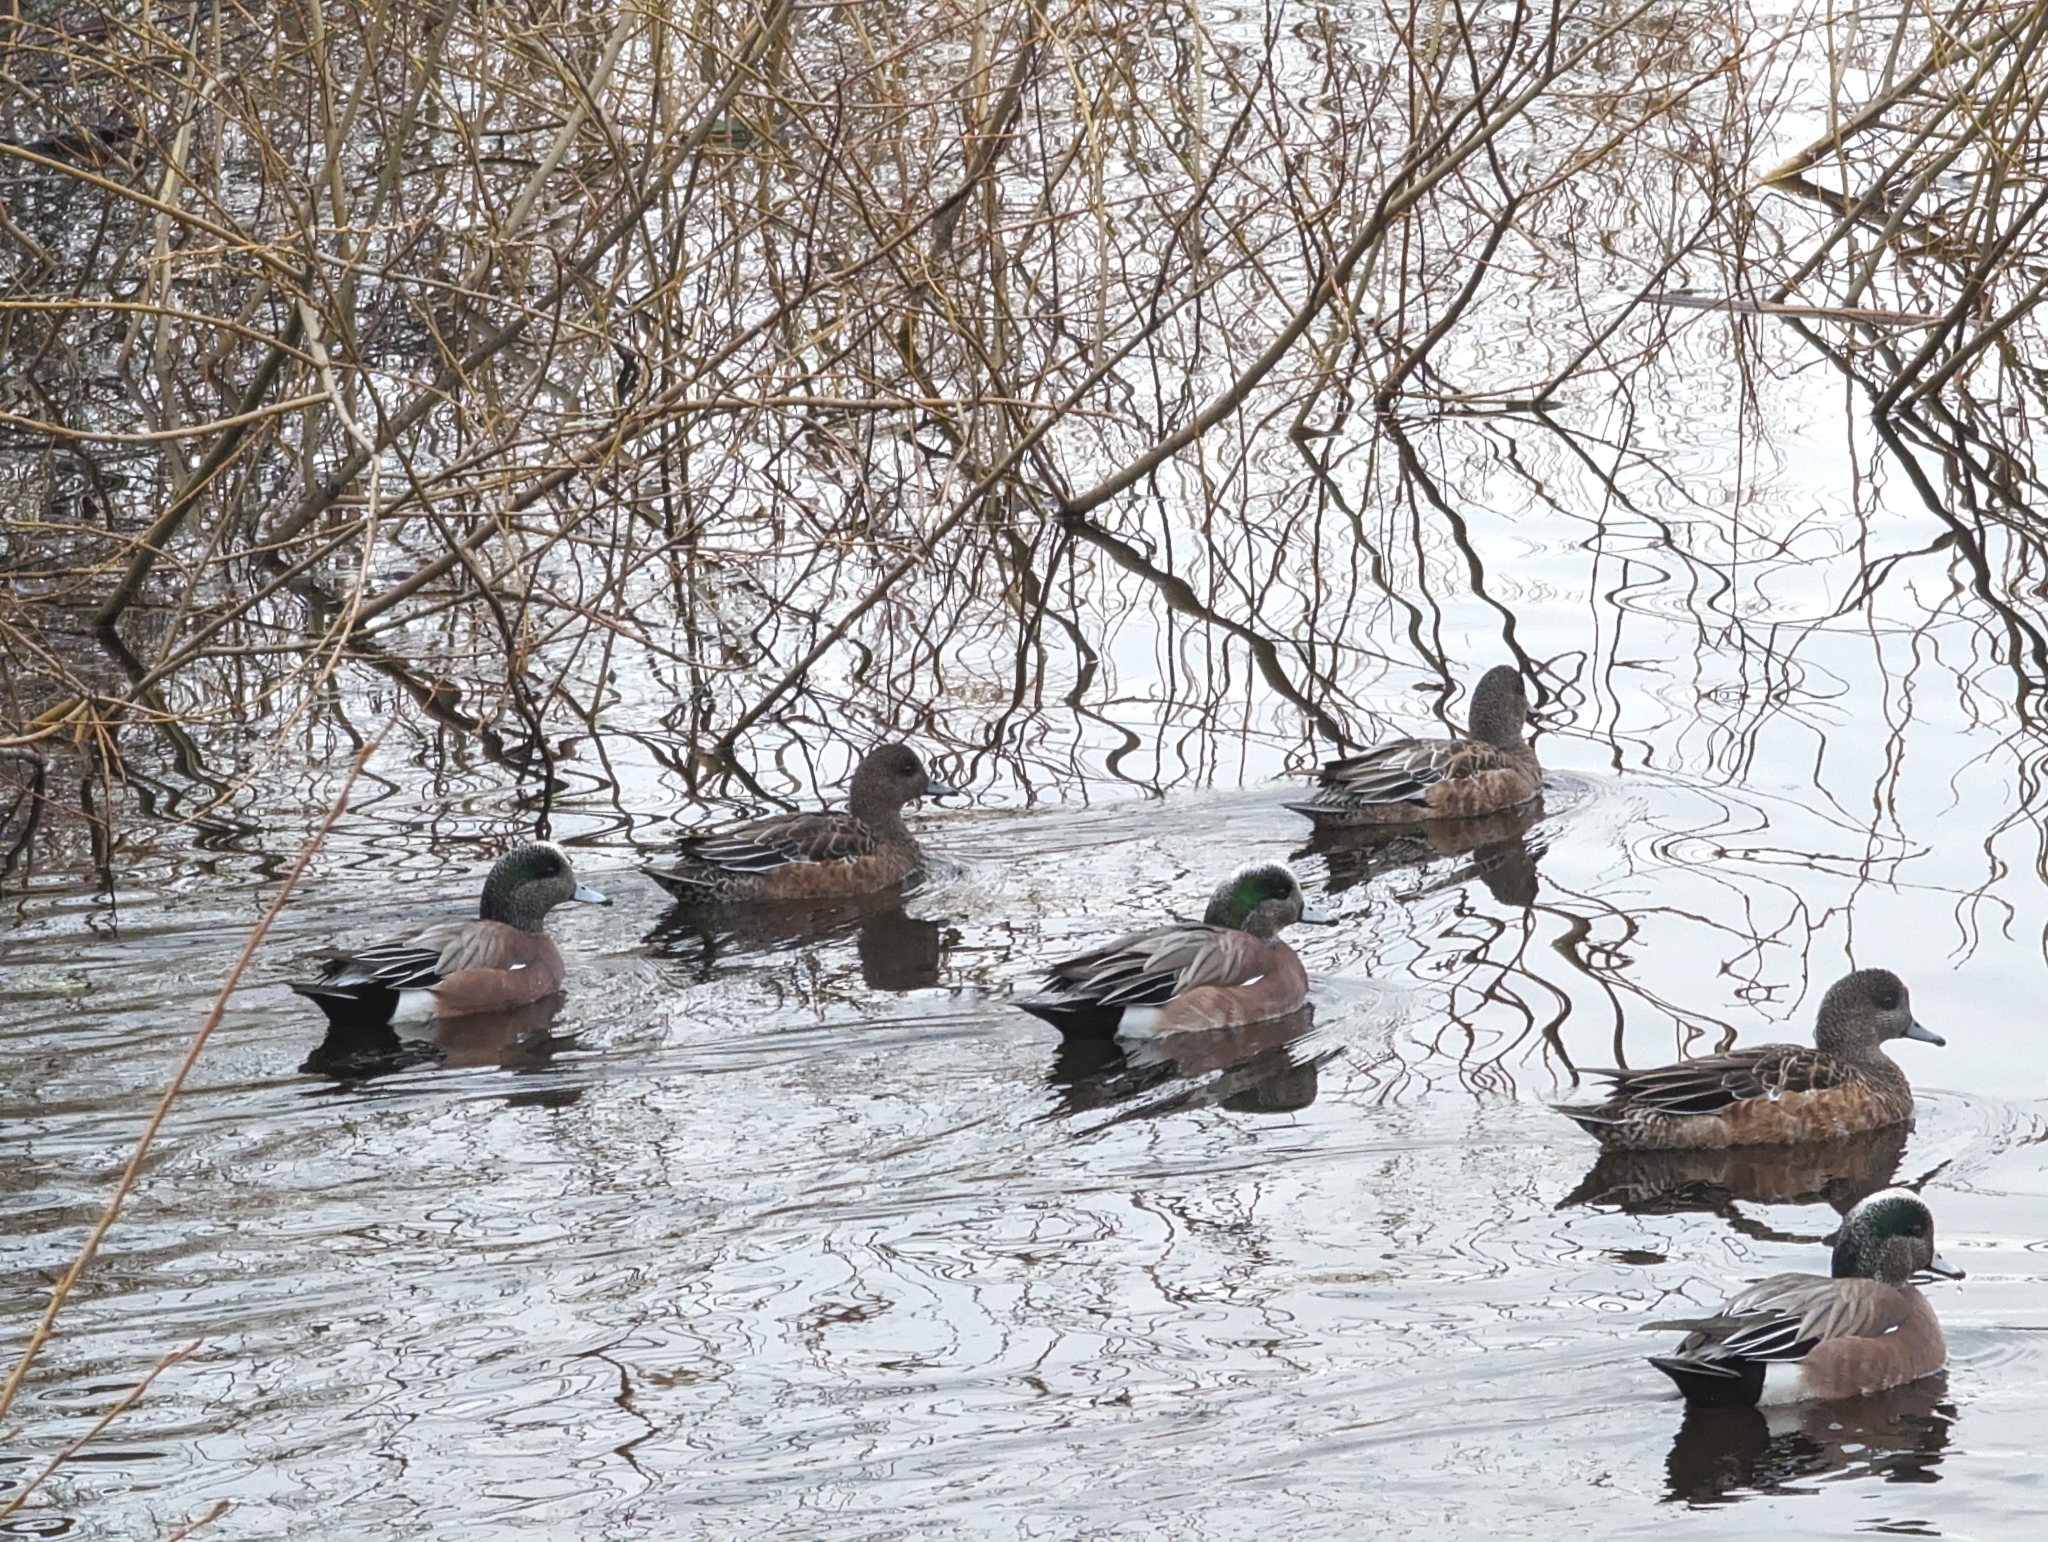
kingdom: Animalia
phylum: Chordata
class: Aves
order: Anseriformes
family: Anatidae
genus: Mareca
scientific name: Mareca americana
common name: American wigeon
